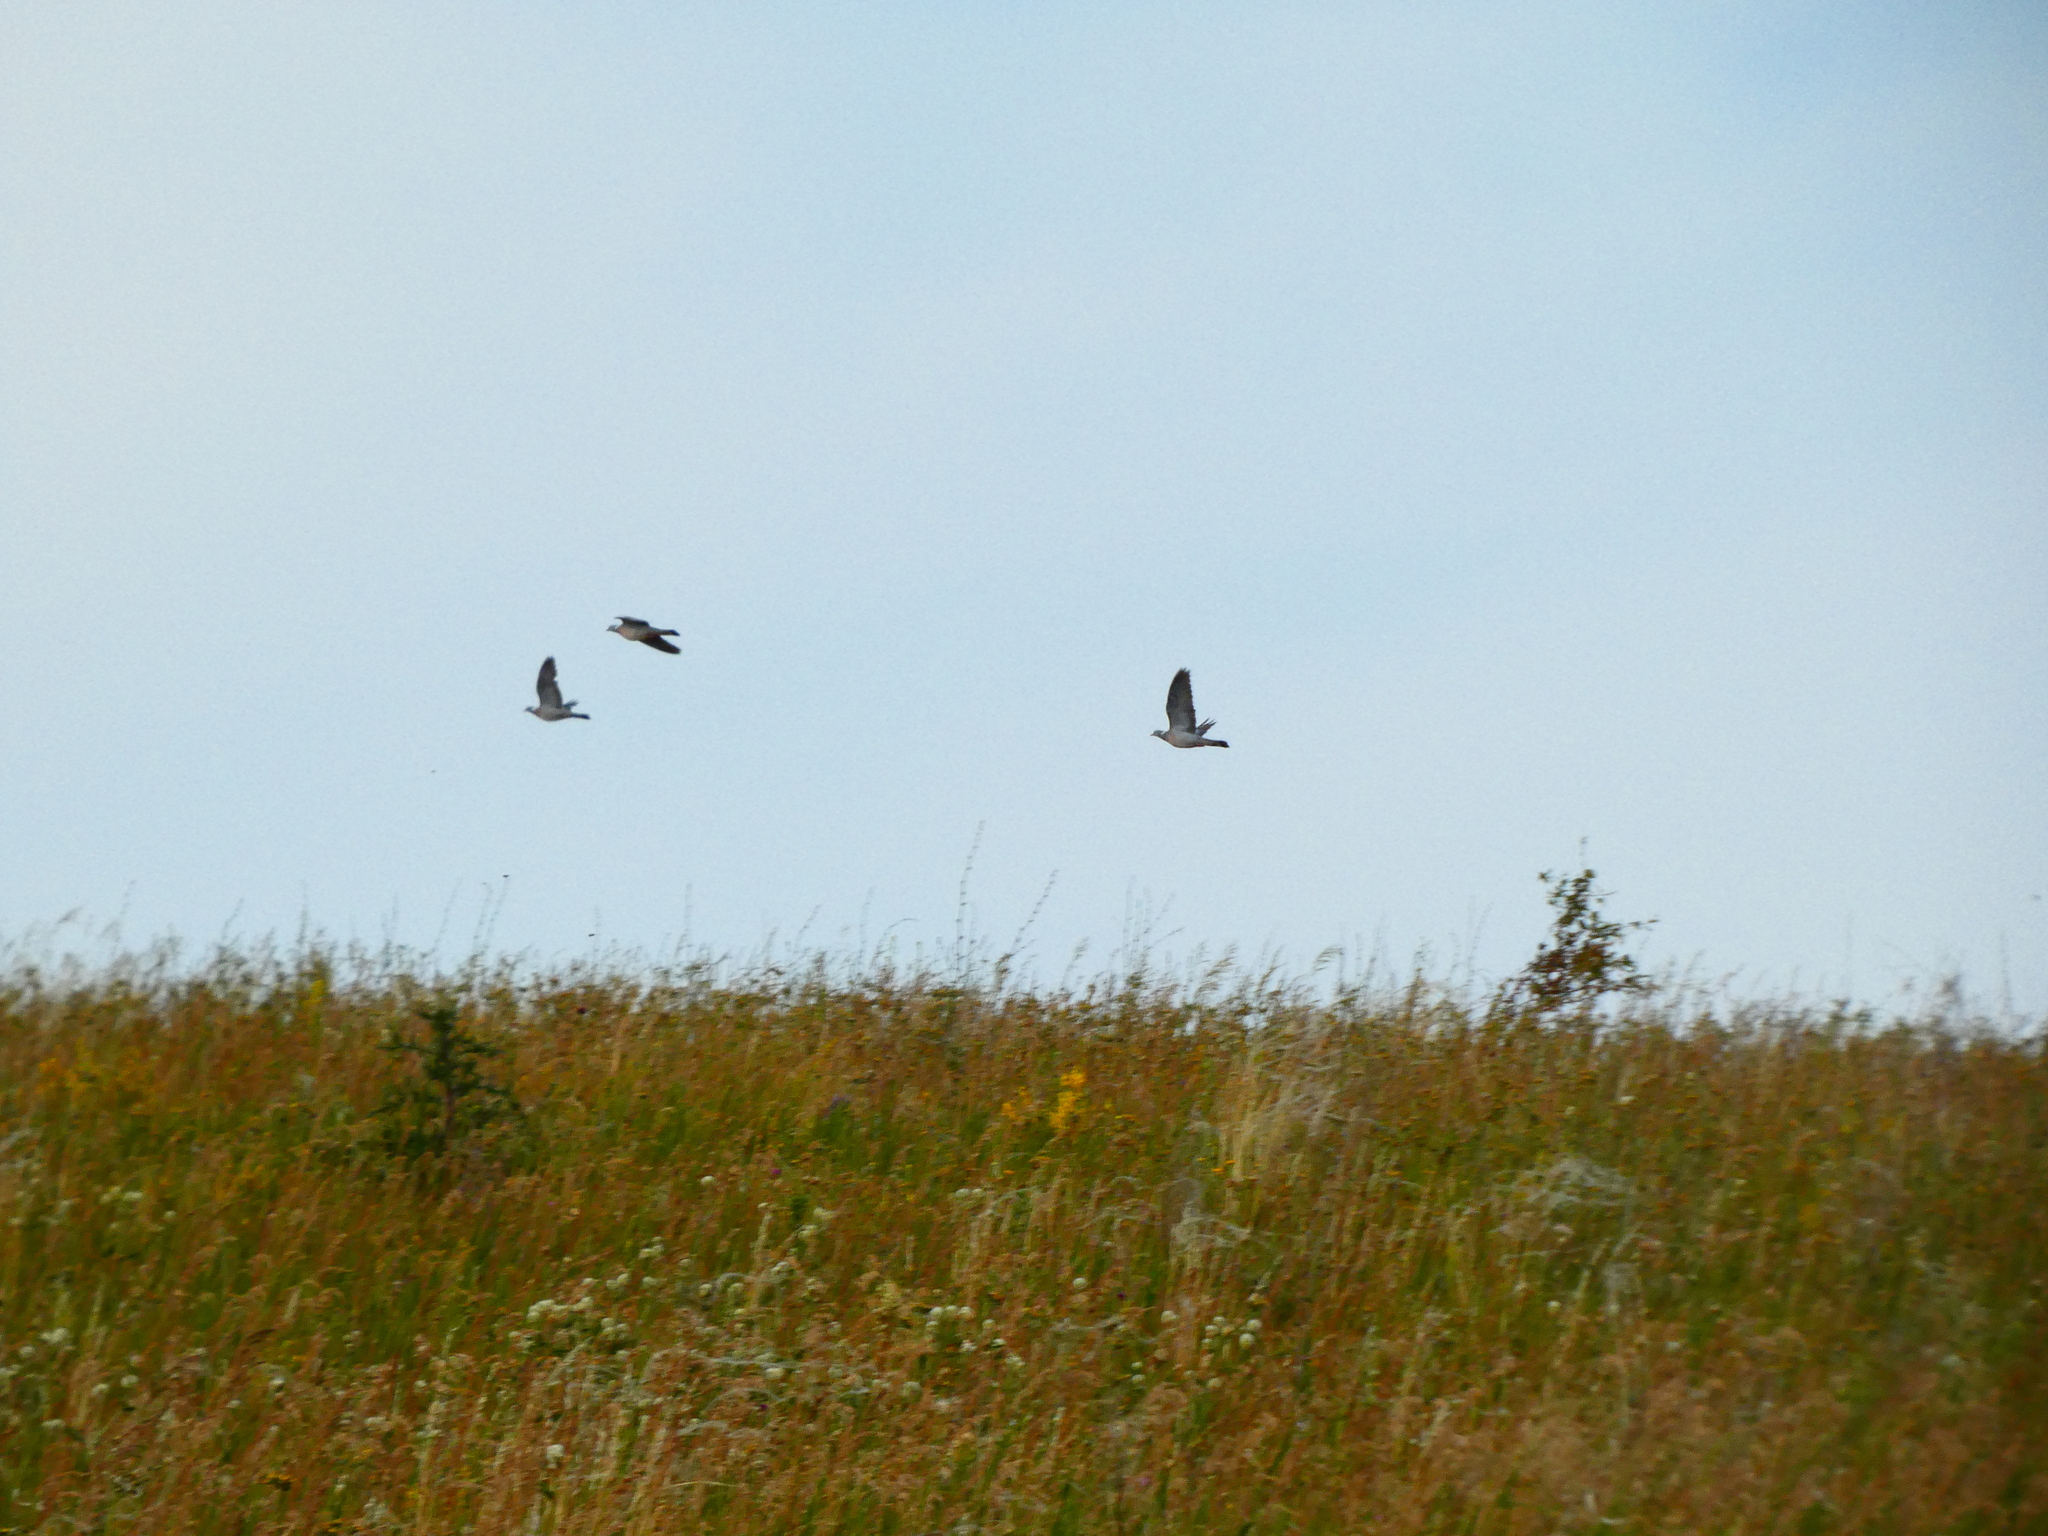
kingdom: Animalia
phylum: Chordata
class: Aves
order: Columbiformes
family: Columbidae
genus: Columba
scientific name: Columba palumbus
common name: Common wood pigeon
